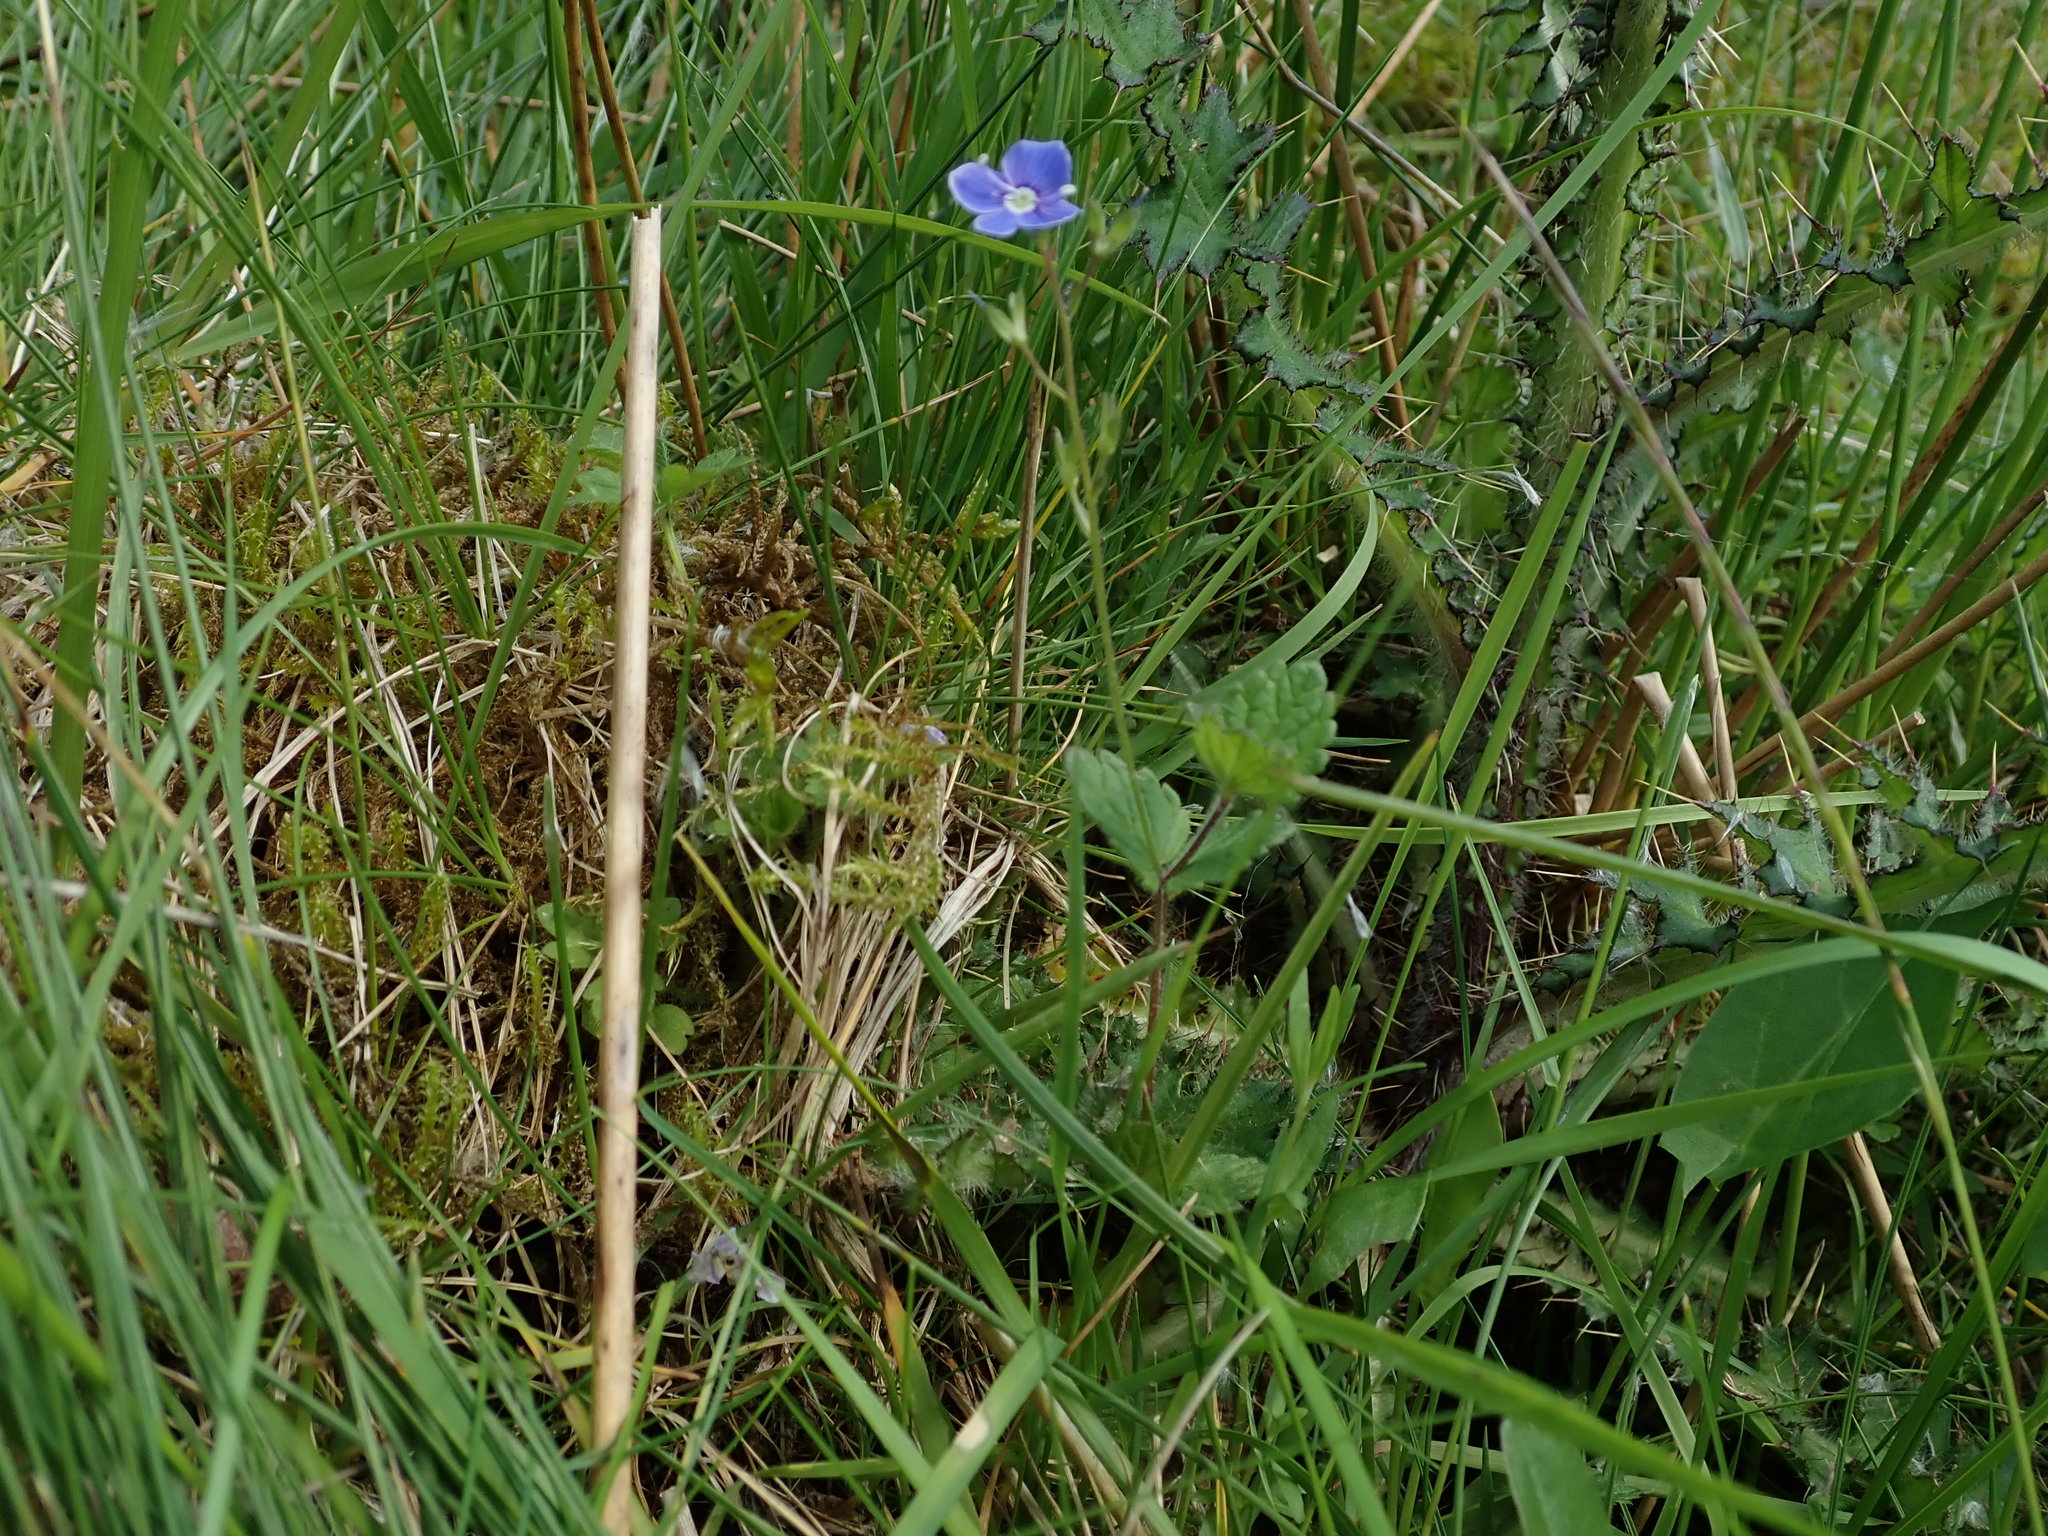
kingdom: Plantae
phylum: Tracheophyta
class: Magnoliopsida
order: Lamiales
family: Plantaginaceae
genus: Veronica
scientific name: Veronica chamaedrys
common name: Germander speedwell
